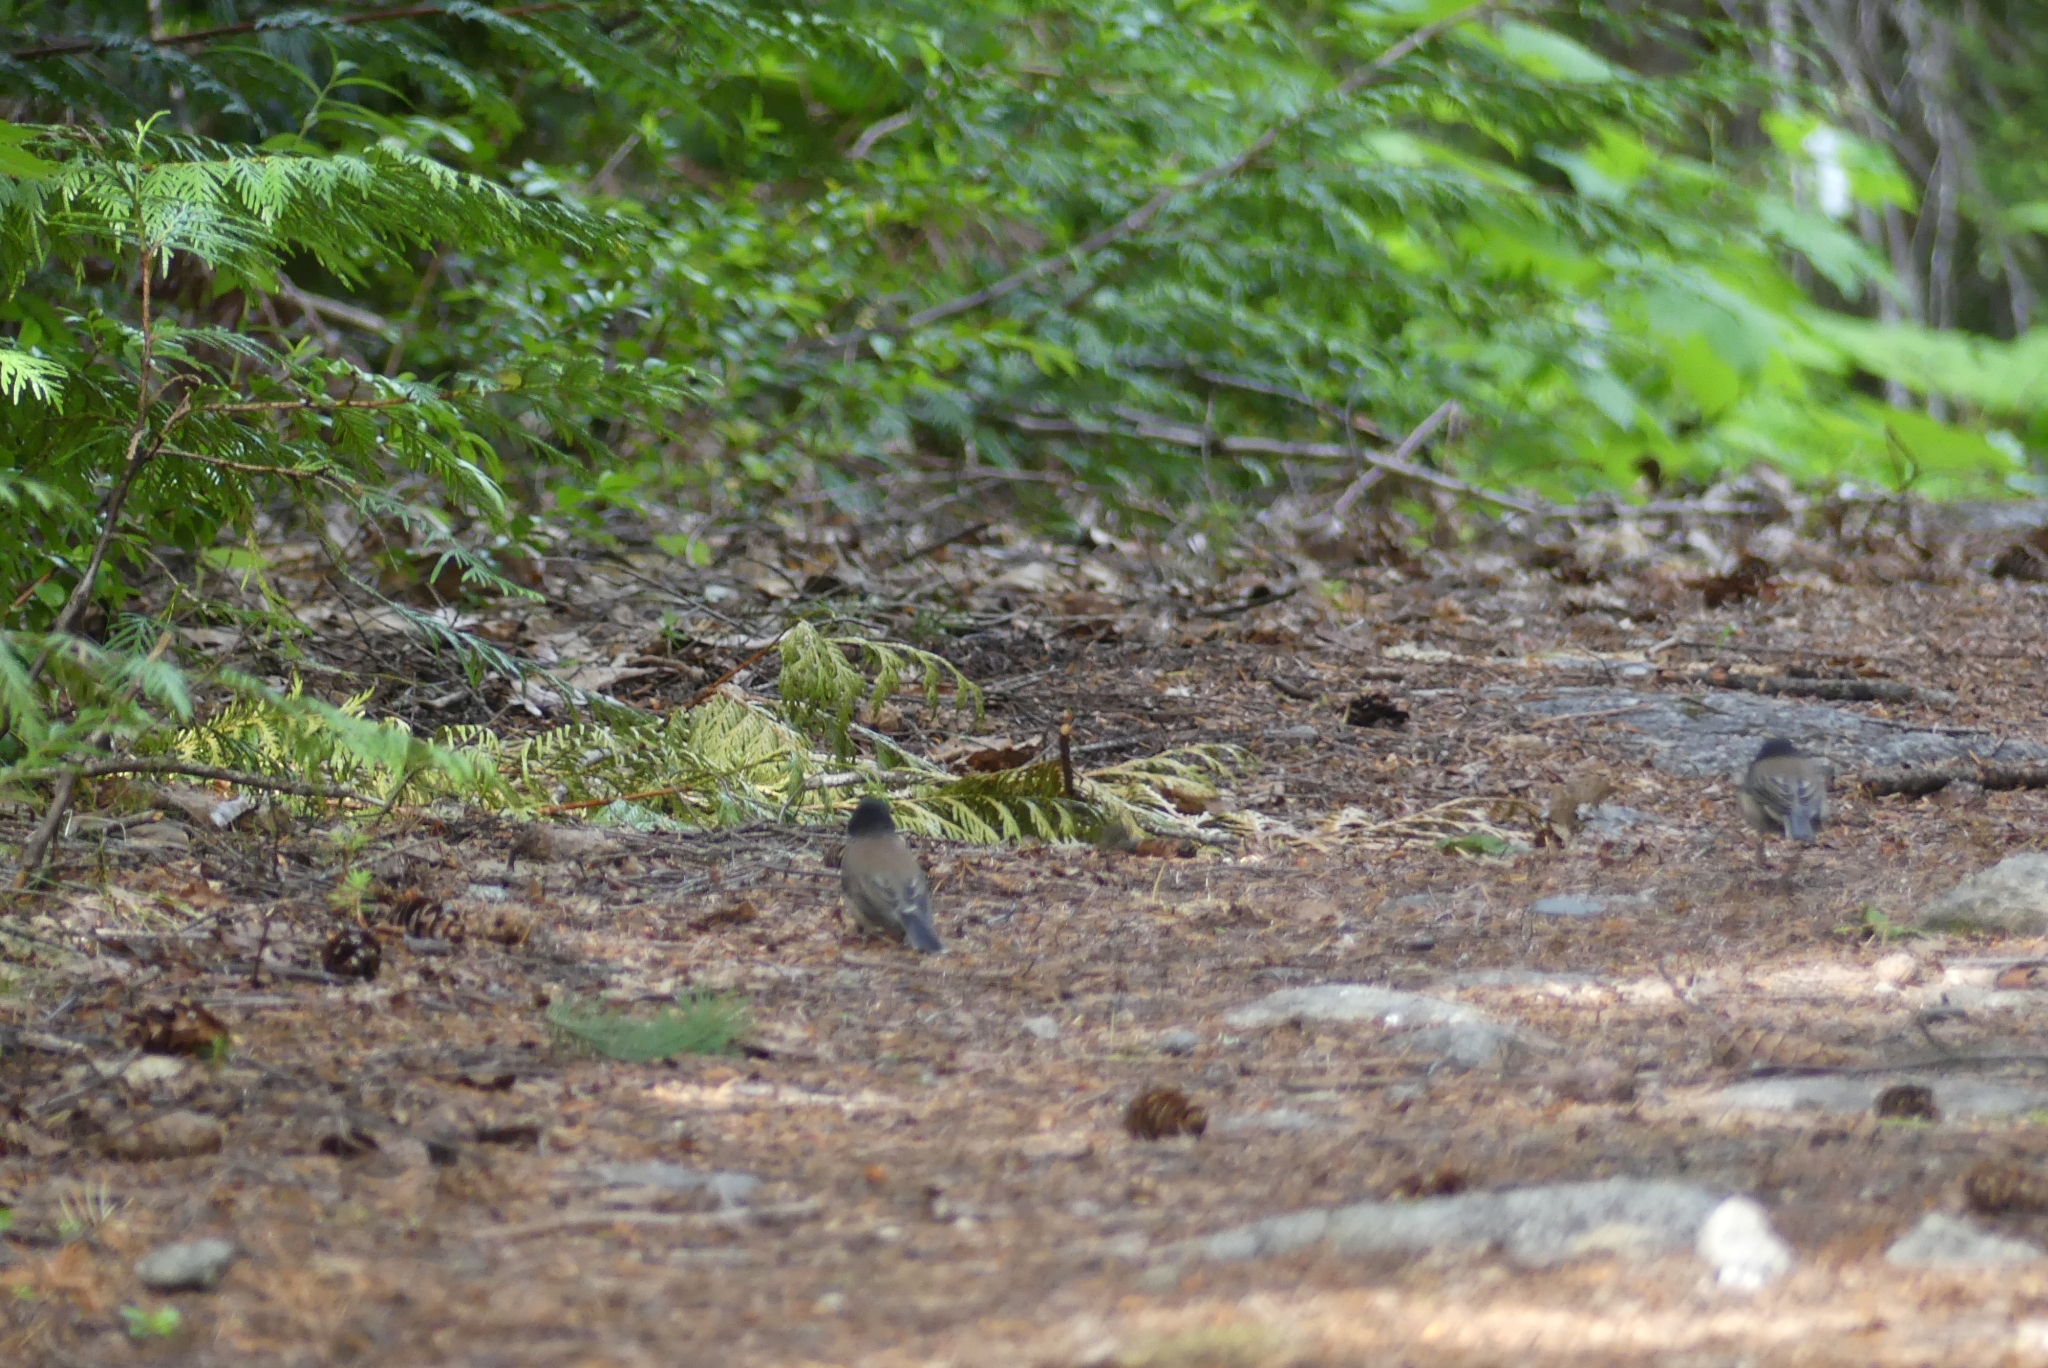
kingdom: Animalia
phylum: Chordata
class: Aves
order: Passeriformes
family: Passerellidae
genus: Junco
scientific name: Junco hyemalis
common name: Dark-eyed junco
